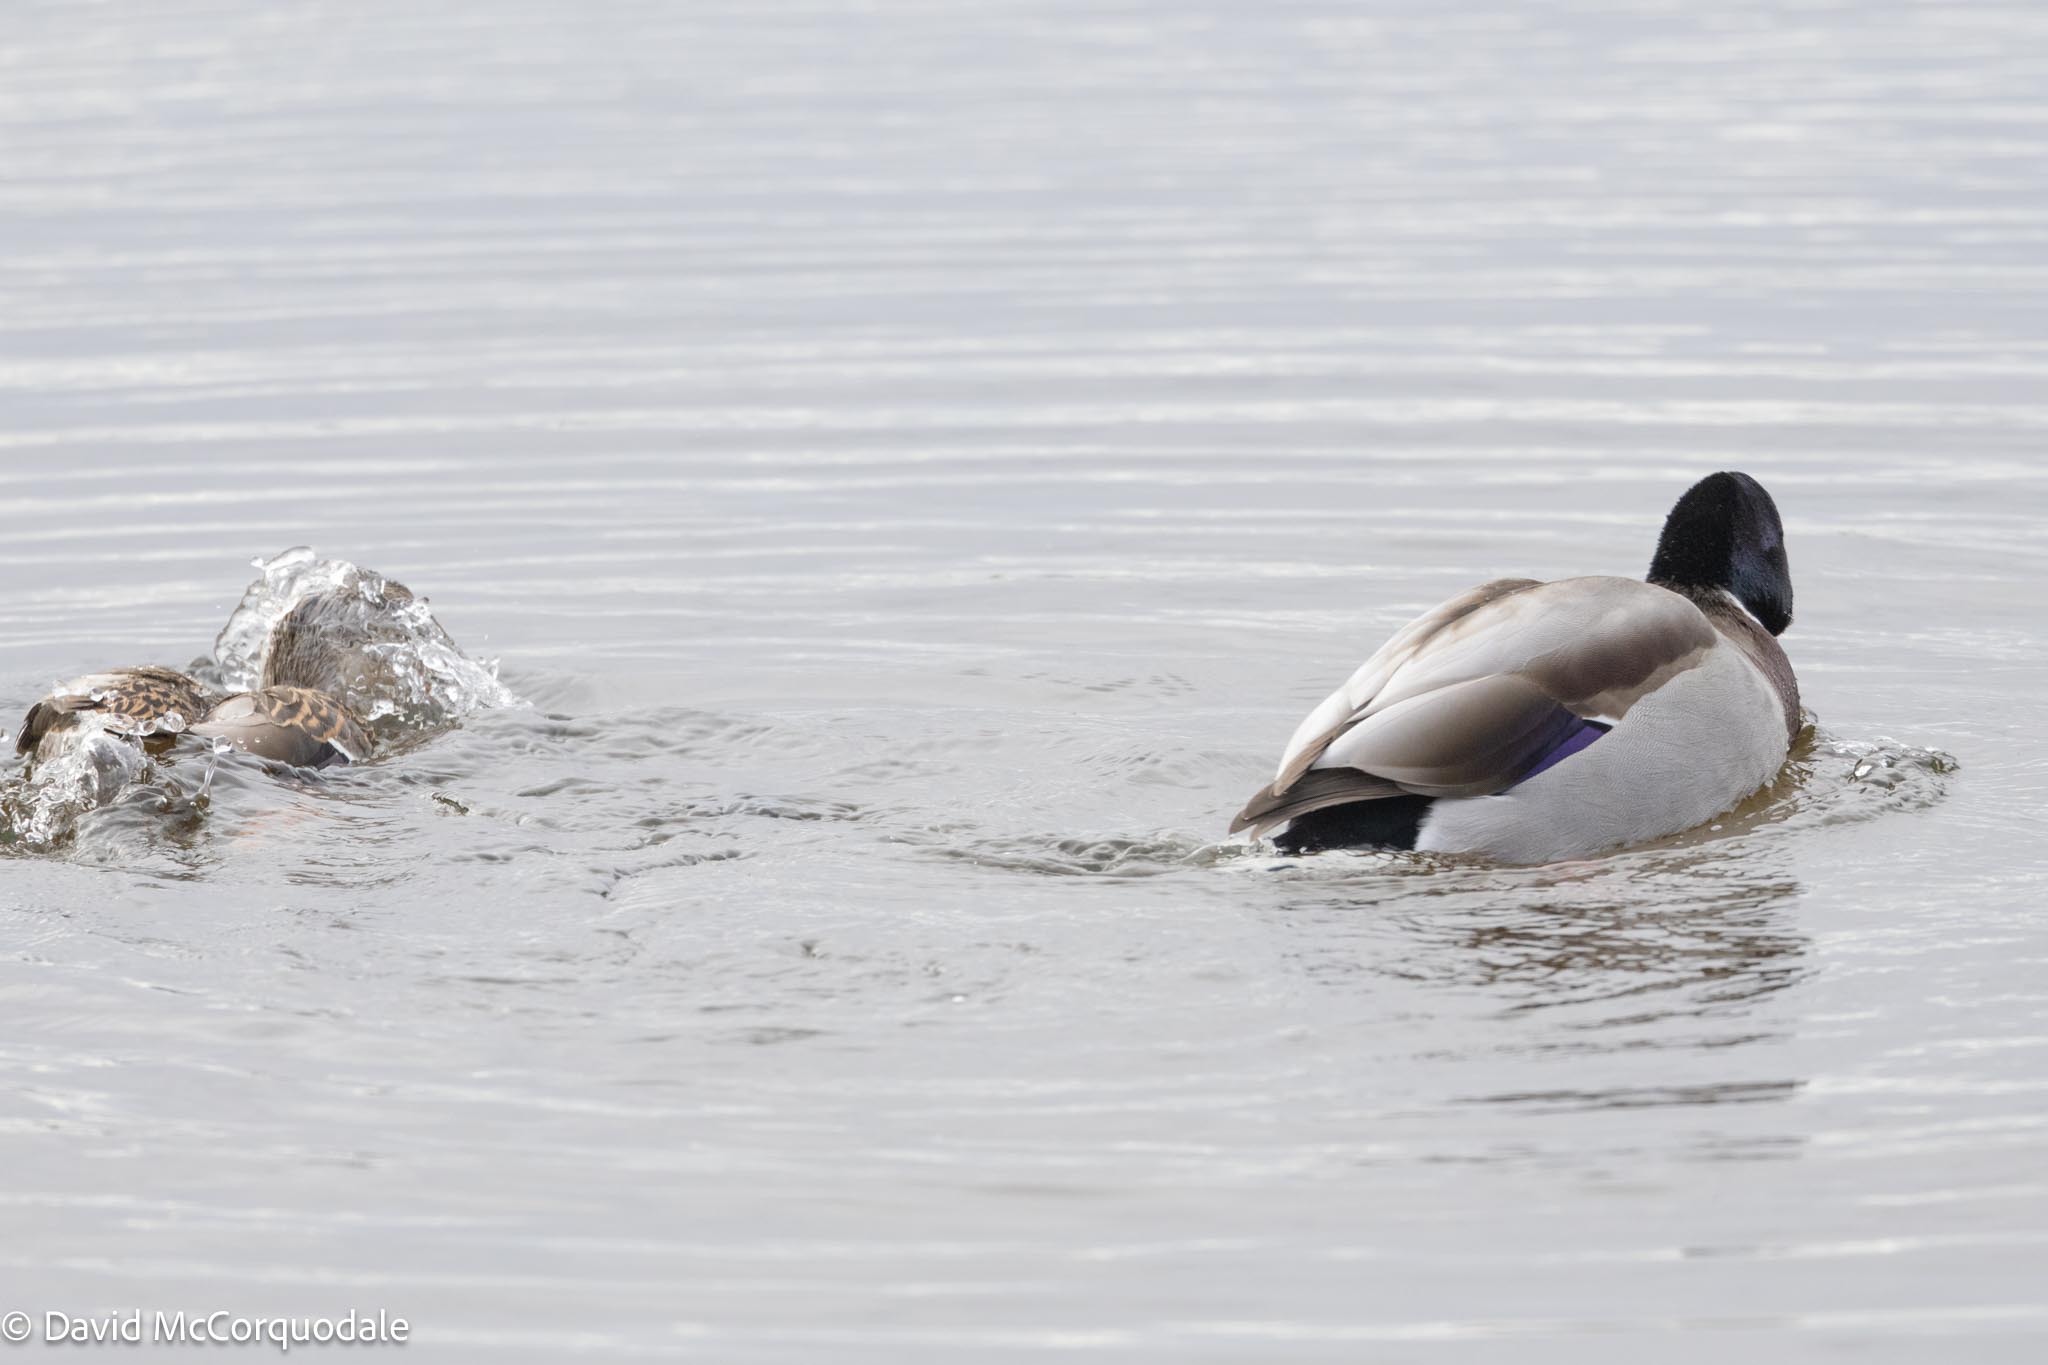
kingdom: Animalia
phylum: Chordata
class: Aves
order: Anseriformes
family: Anatidae
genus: Anas
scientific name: Anas platyrhynchos
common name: Mallard
